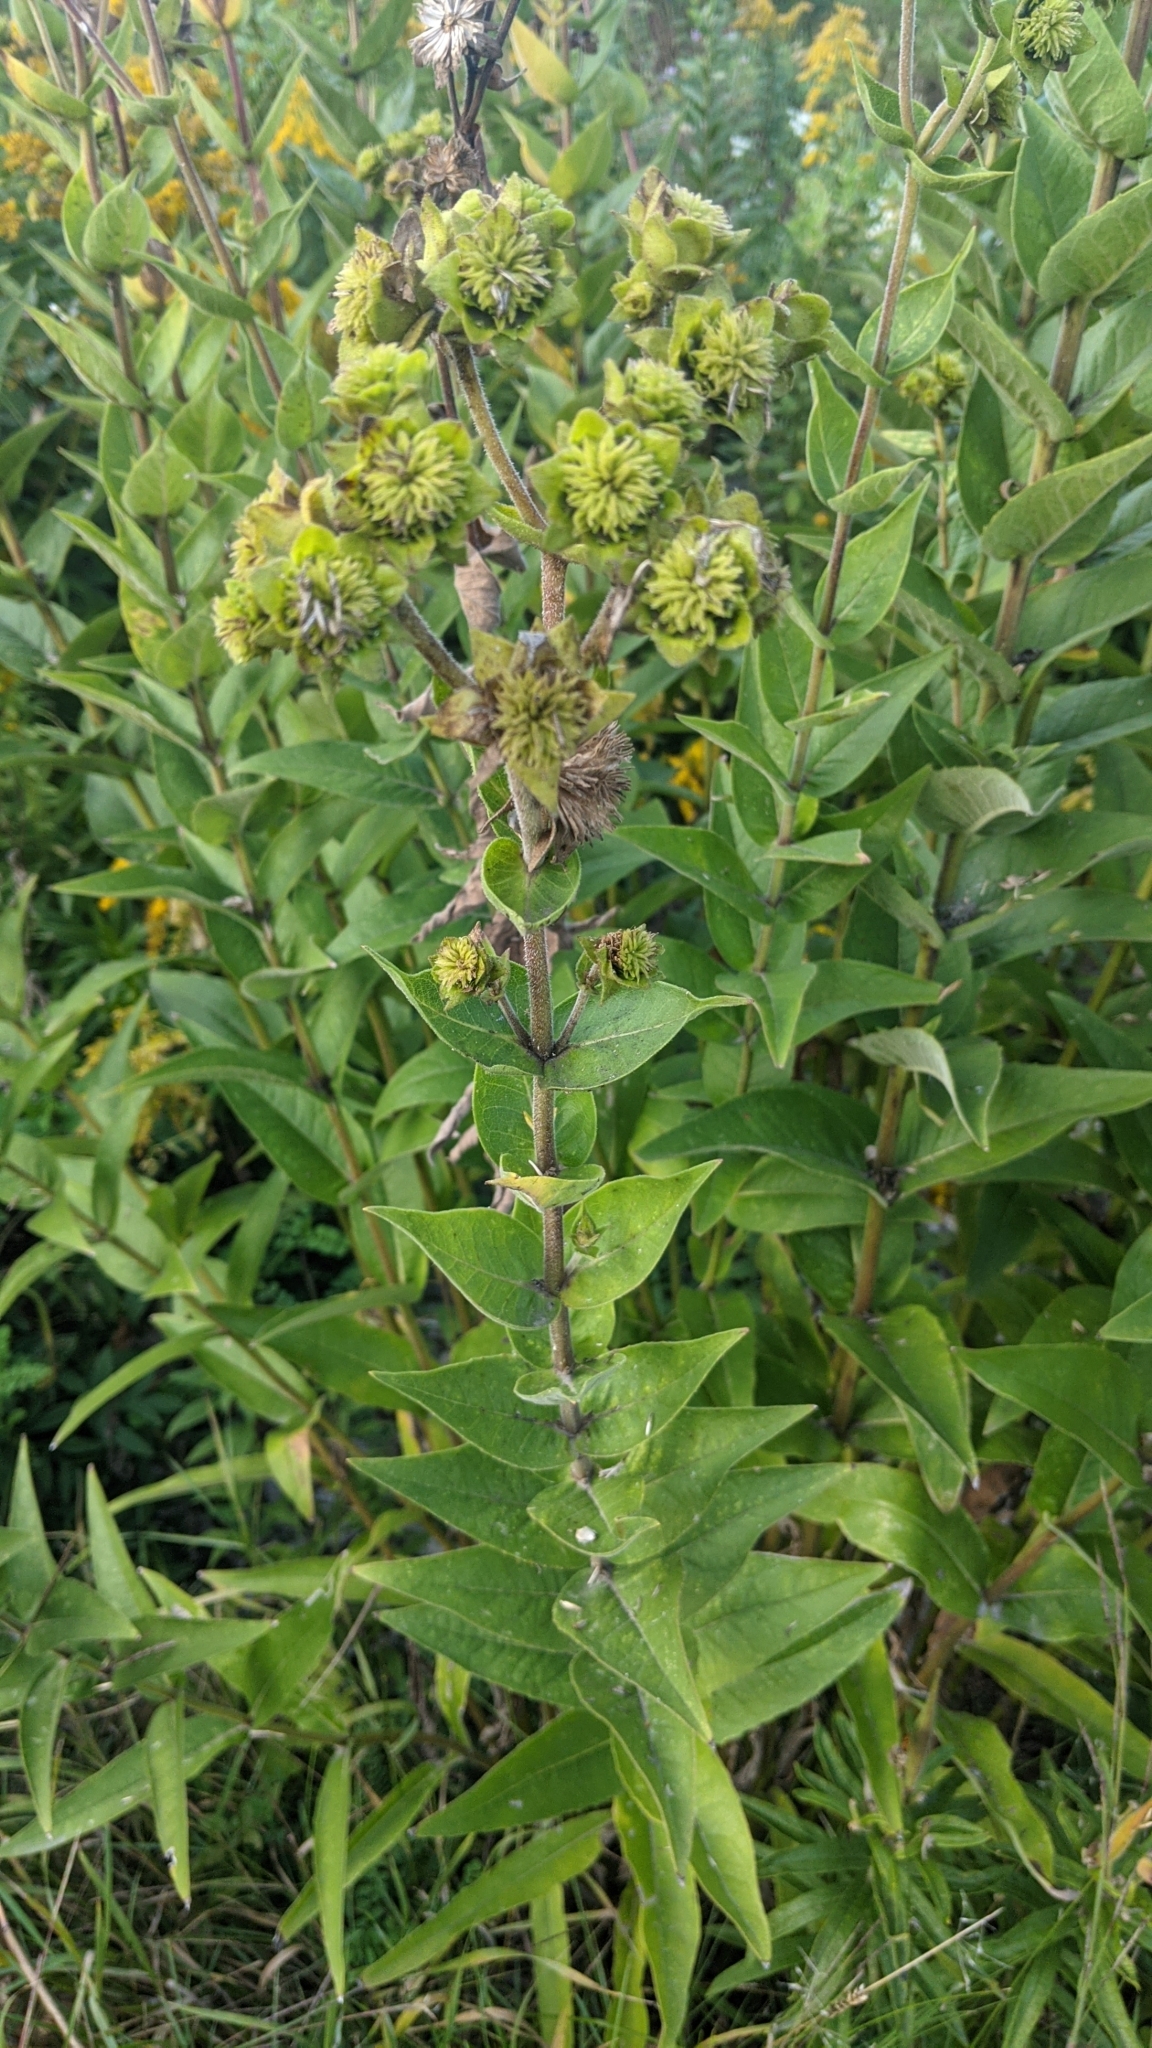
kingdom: Plantae
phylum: Tracheophyta
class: Magnoliopsida
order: Asterales
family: Asteraceae
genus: Silphium
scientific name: Silphium integrifolium
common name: Whole-leaf rosinweed
